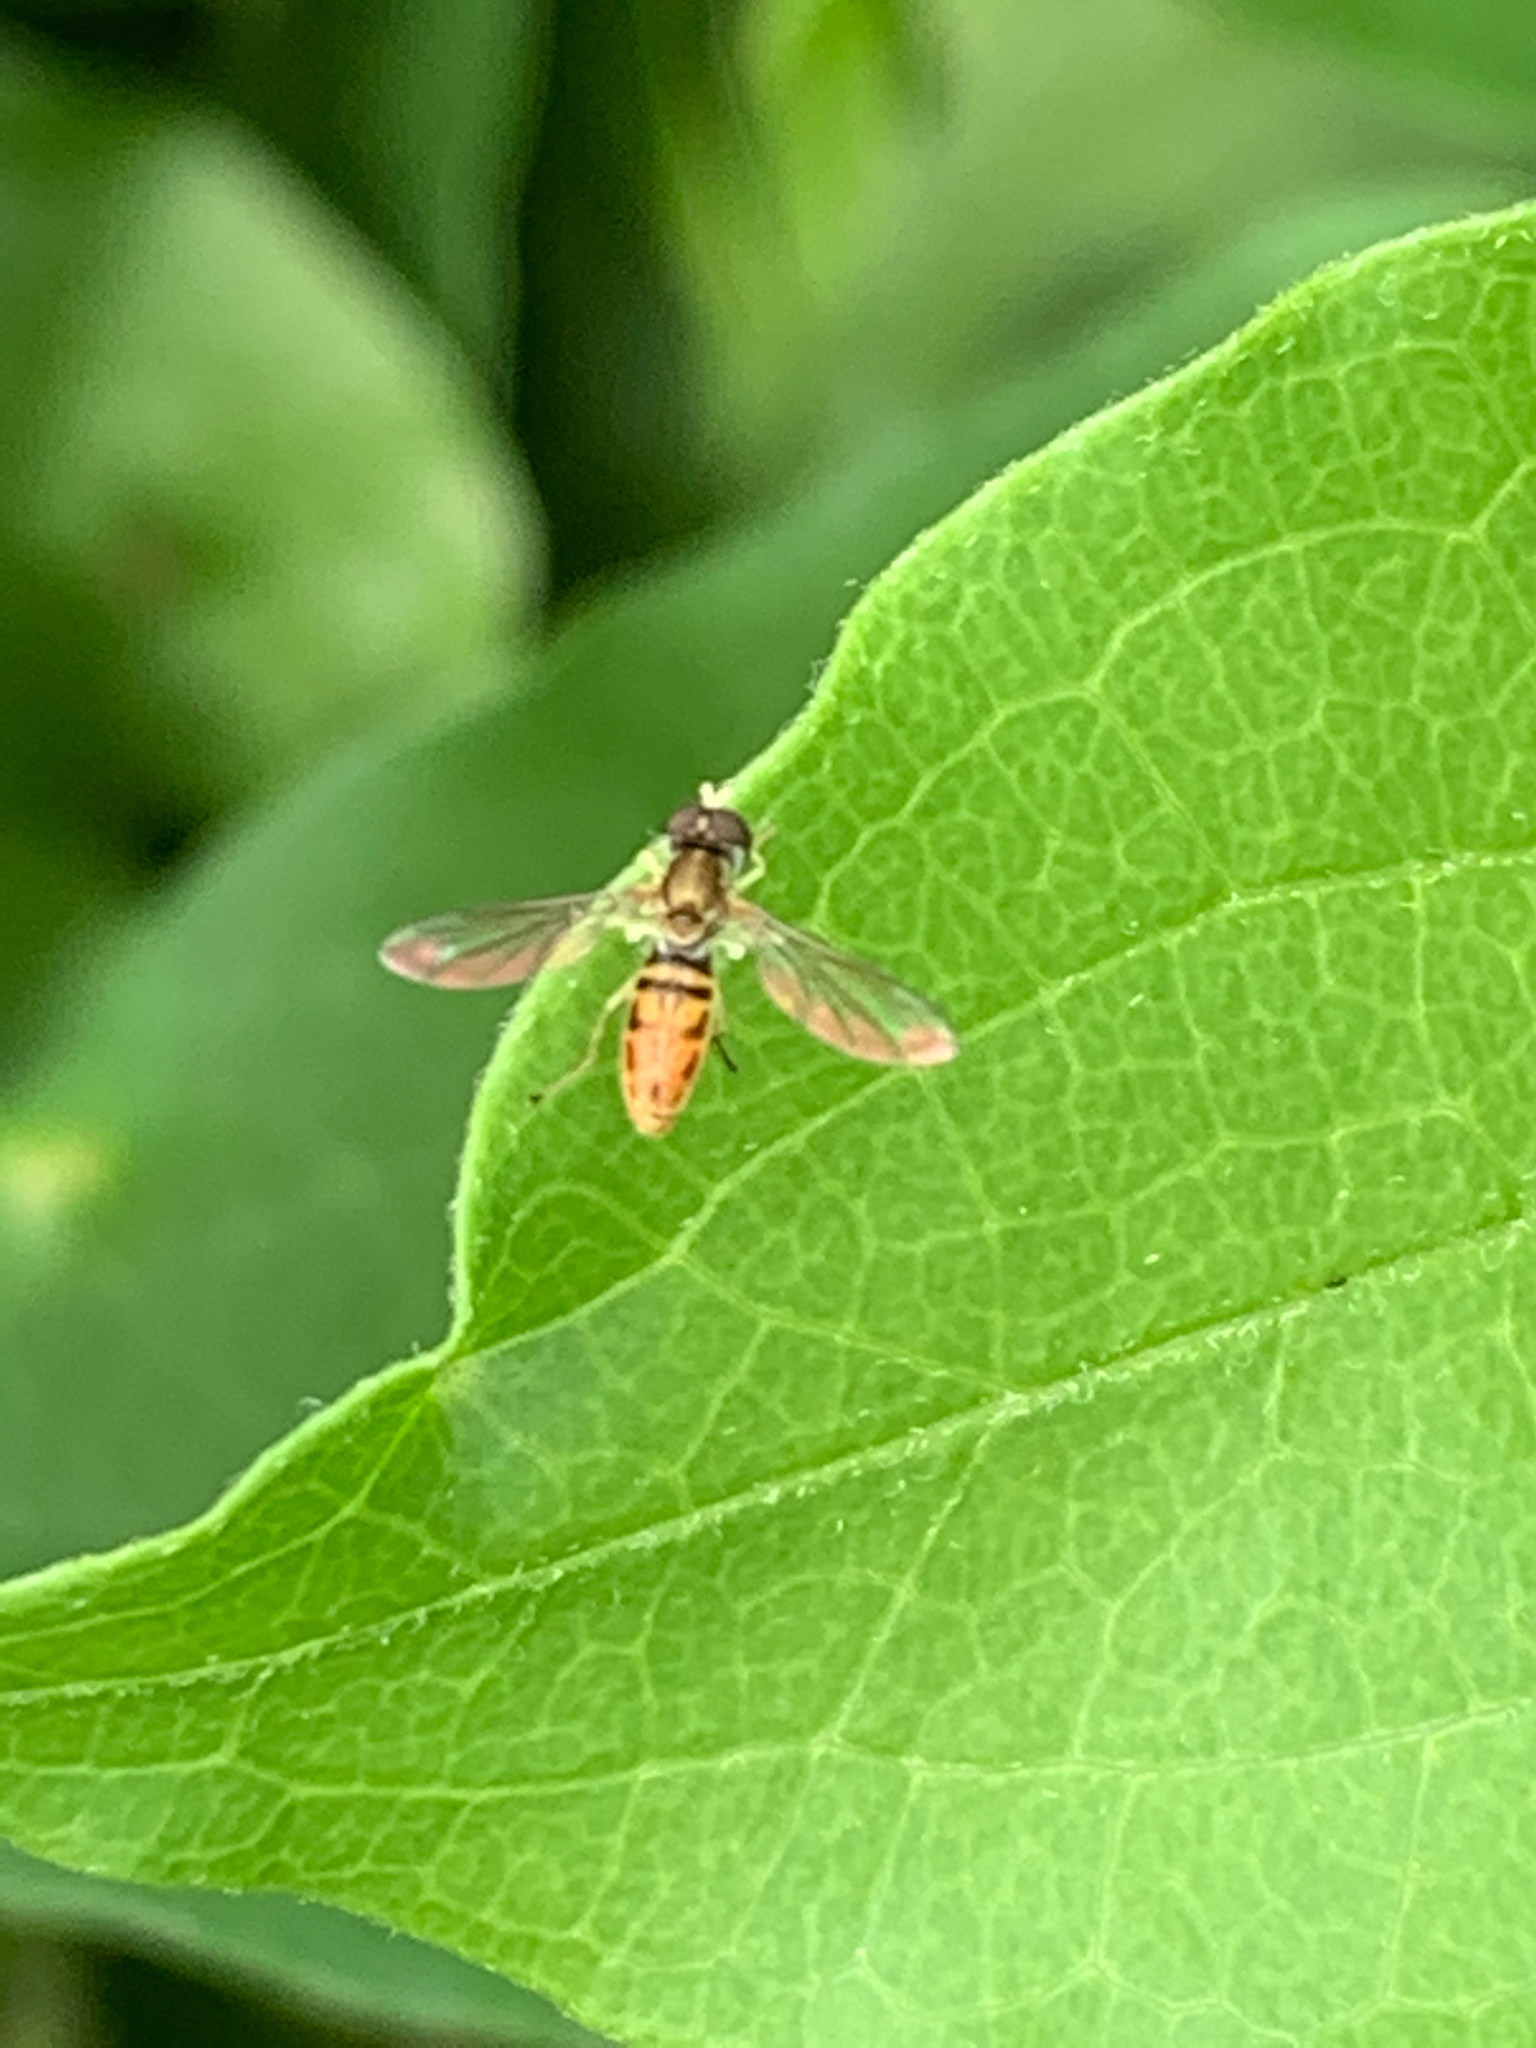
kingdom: Animalia
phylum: Arthropoda
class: Insecta
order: Diptera
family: Syrphidae
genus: Toxomerus
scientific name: Toxomerus marginatus
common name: Syrphid fly
